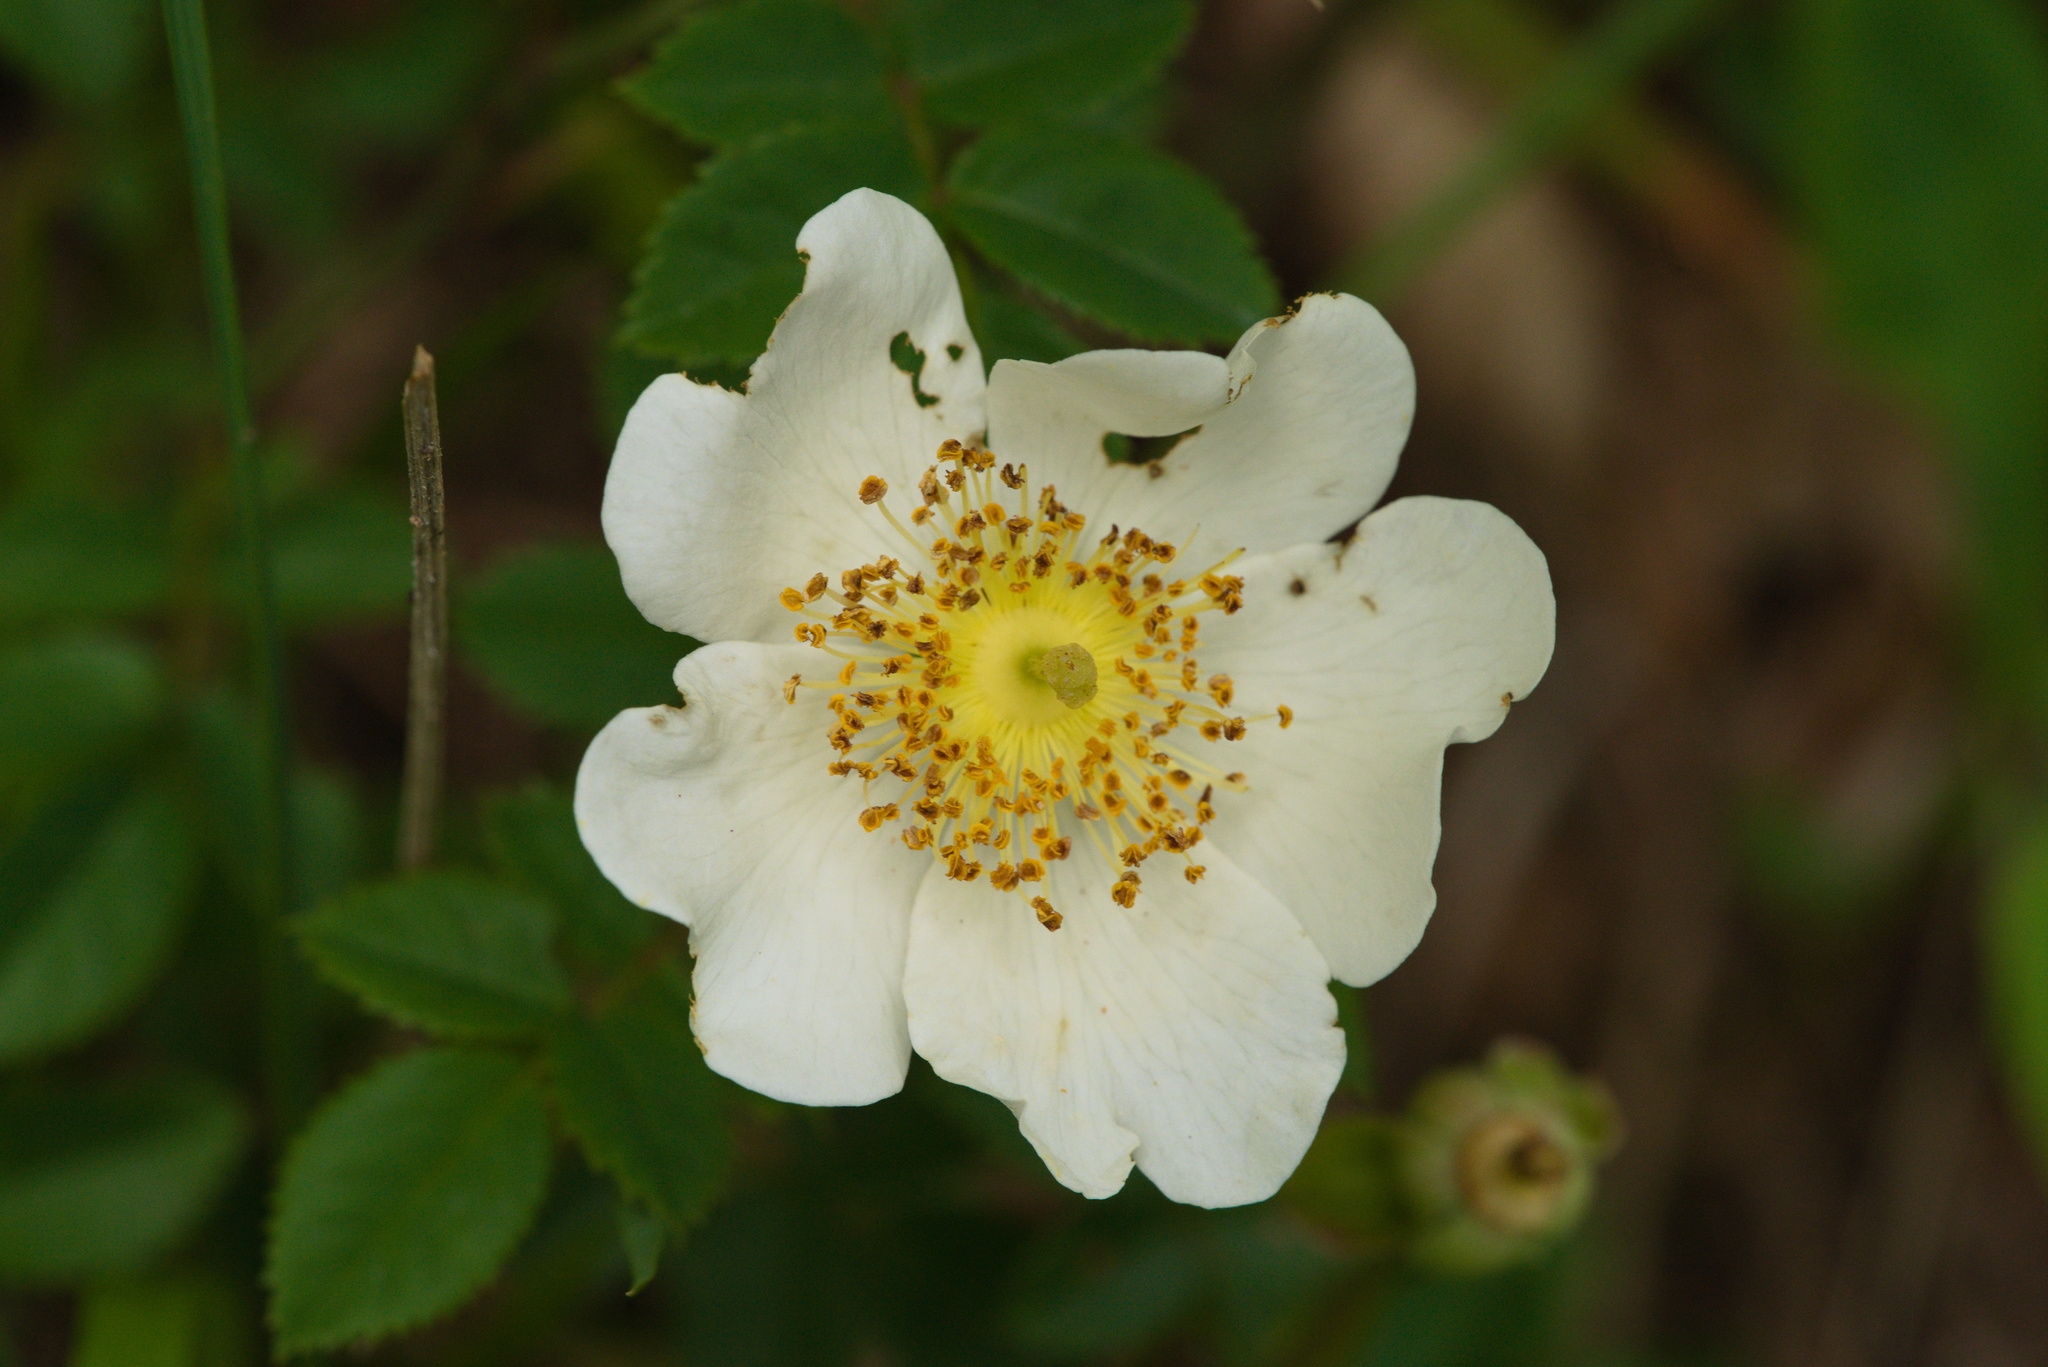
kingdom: Plantae
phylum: Tracheophyta
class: Magnoliopsida
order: Rosales
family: Rosaceae
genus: Rosa
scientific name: Rosa arvensis
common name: Field rose
